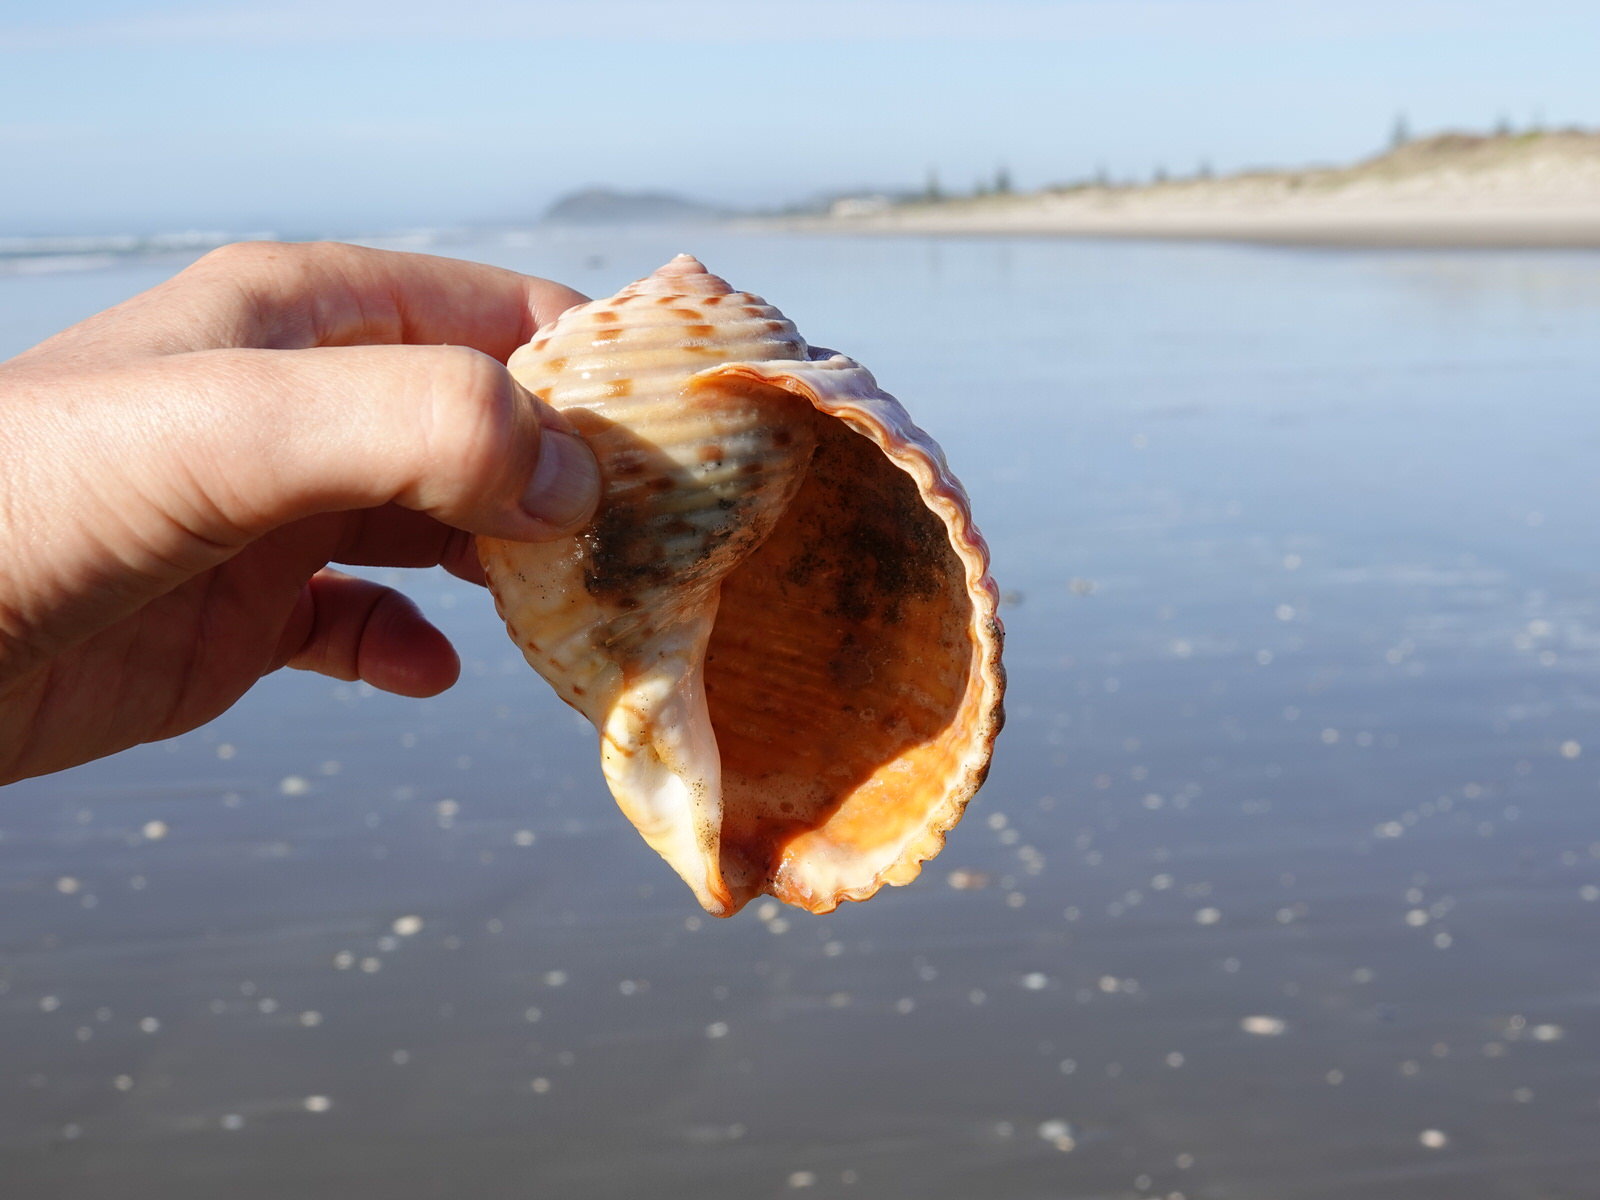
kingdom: Animalia
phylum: Mollusca
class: Gastropoda
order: Littorinimorpha
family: Tonnidae
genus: Tonna
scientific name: Tonna tankervillii
